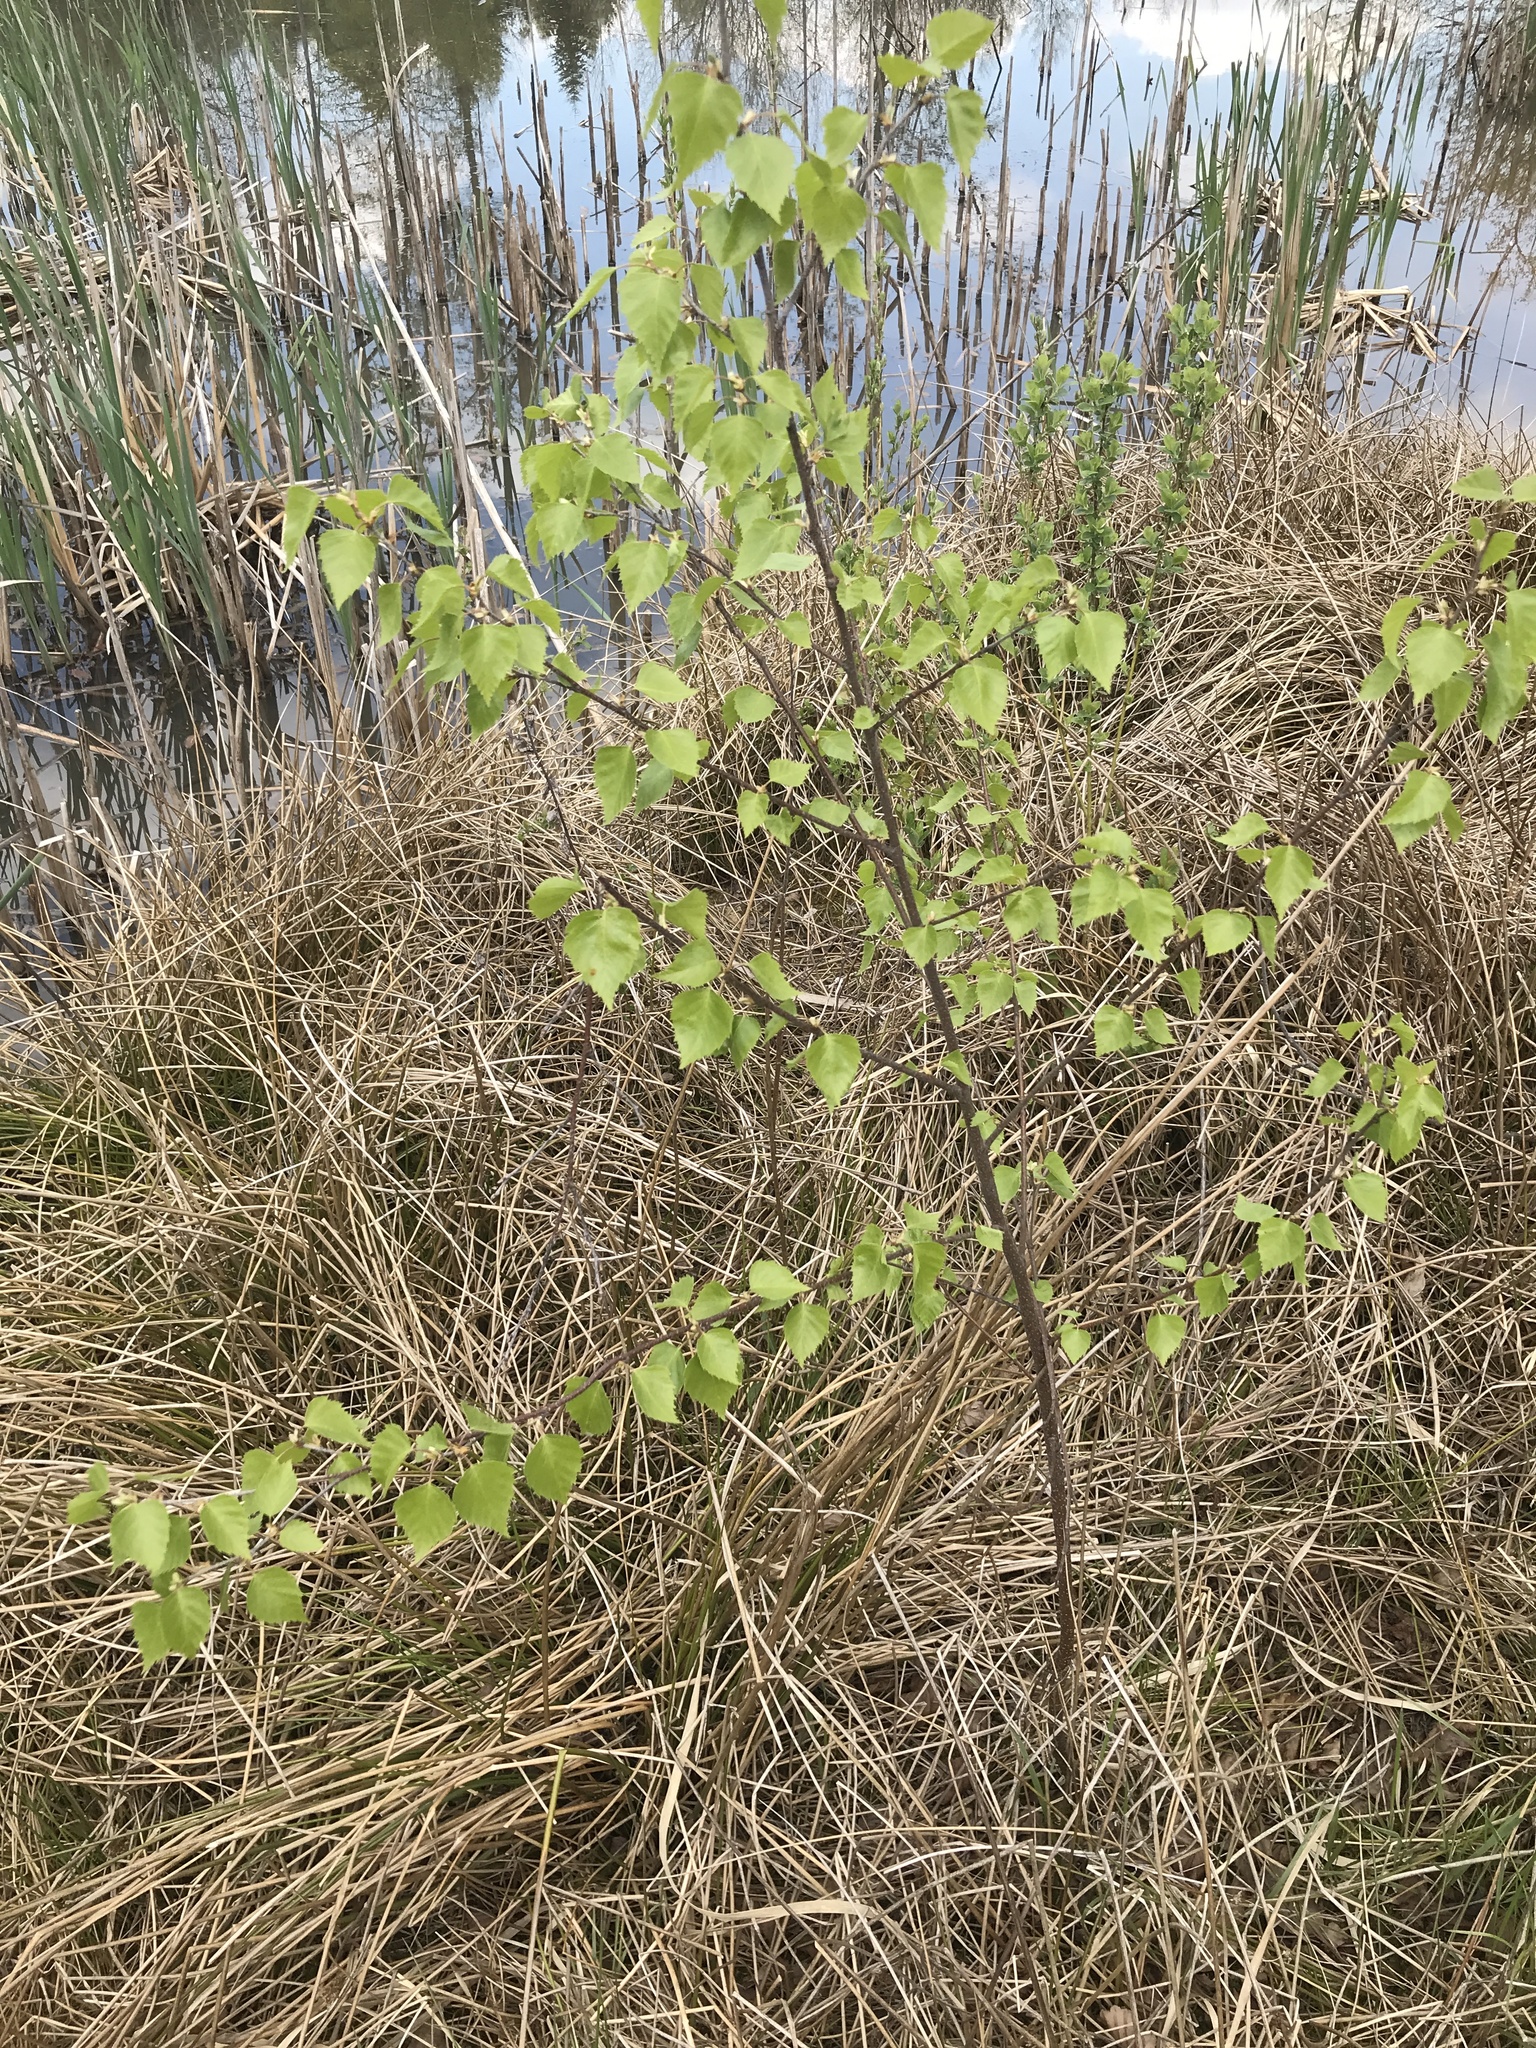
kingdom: Plantae
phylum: Tracheophyta
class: Magnoliopsida
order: Fagales
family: Betulaceae
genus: Betula
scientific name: Betula pendula
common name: Silver birch
